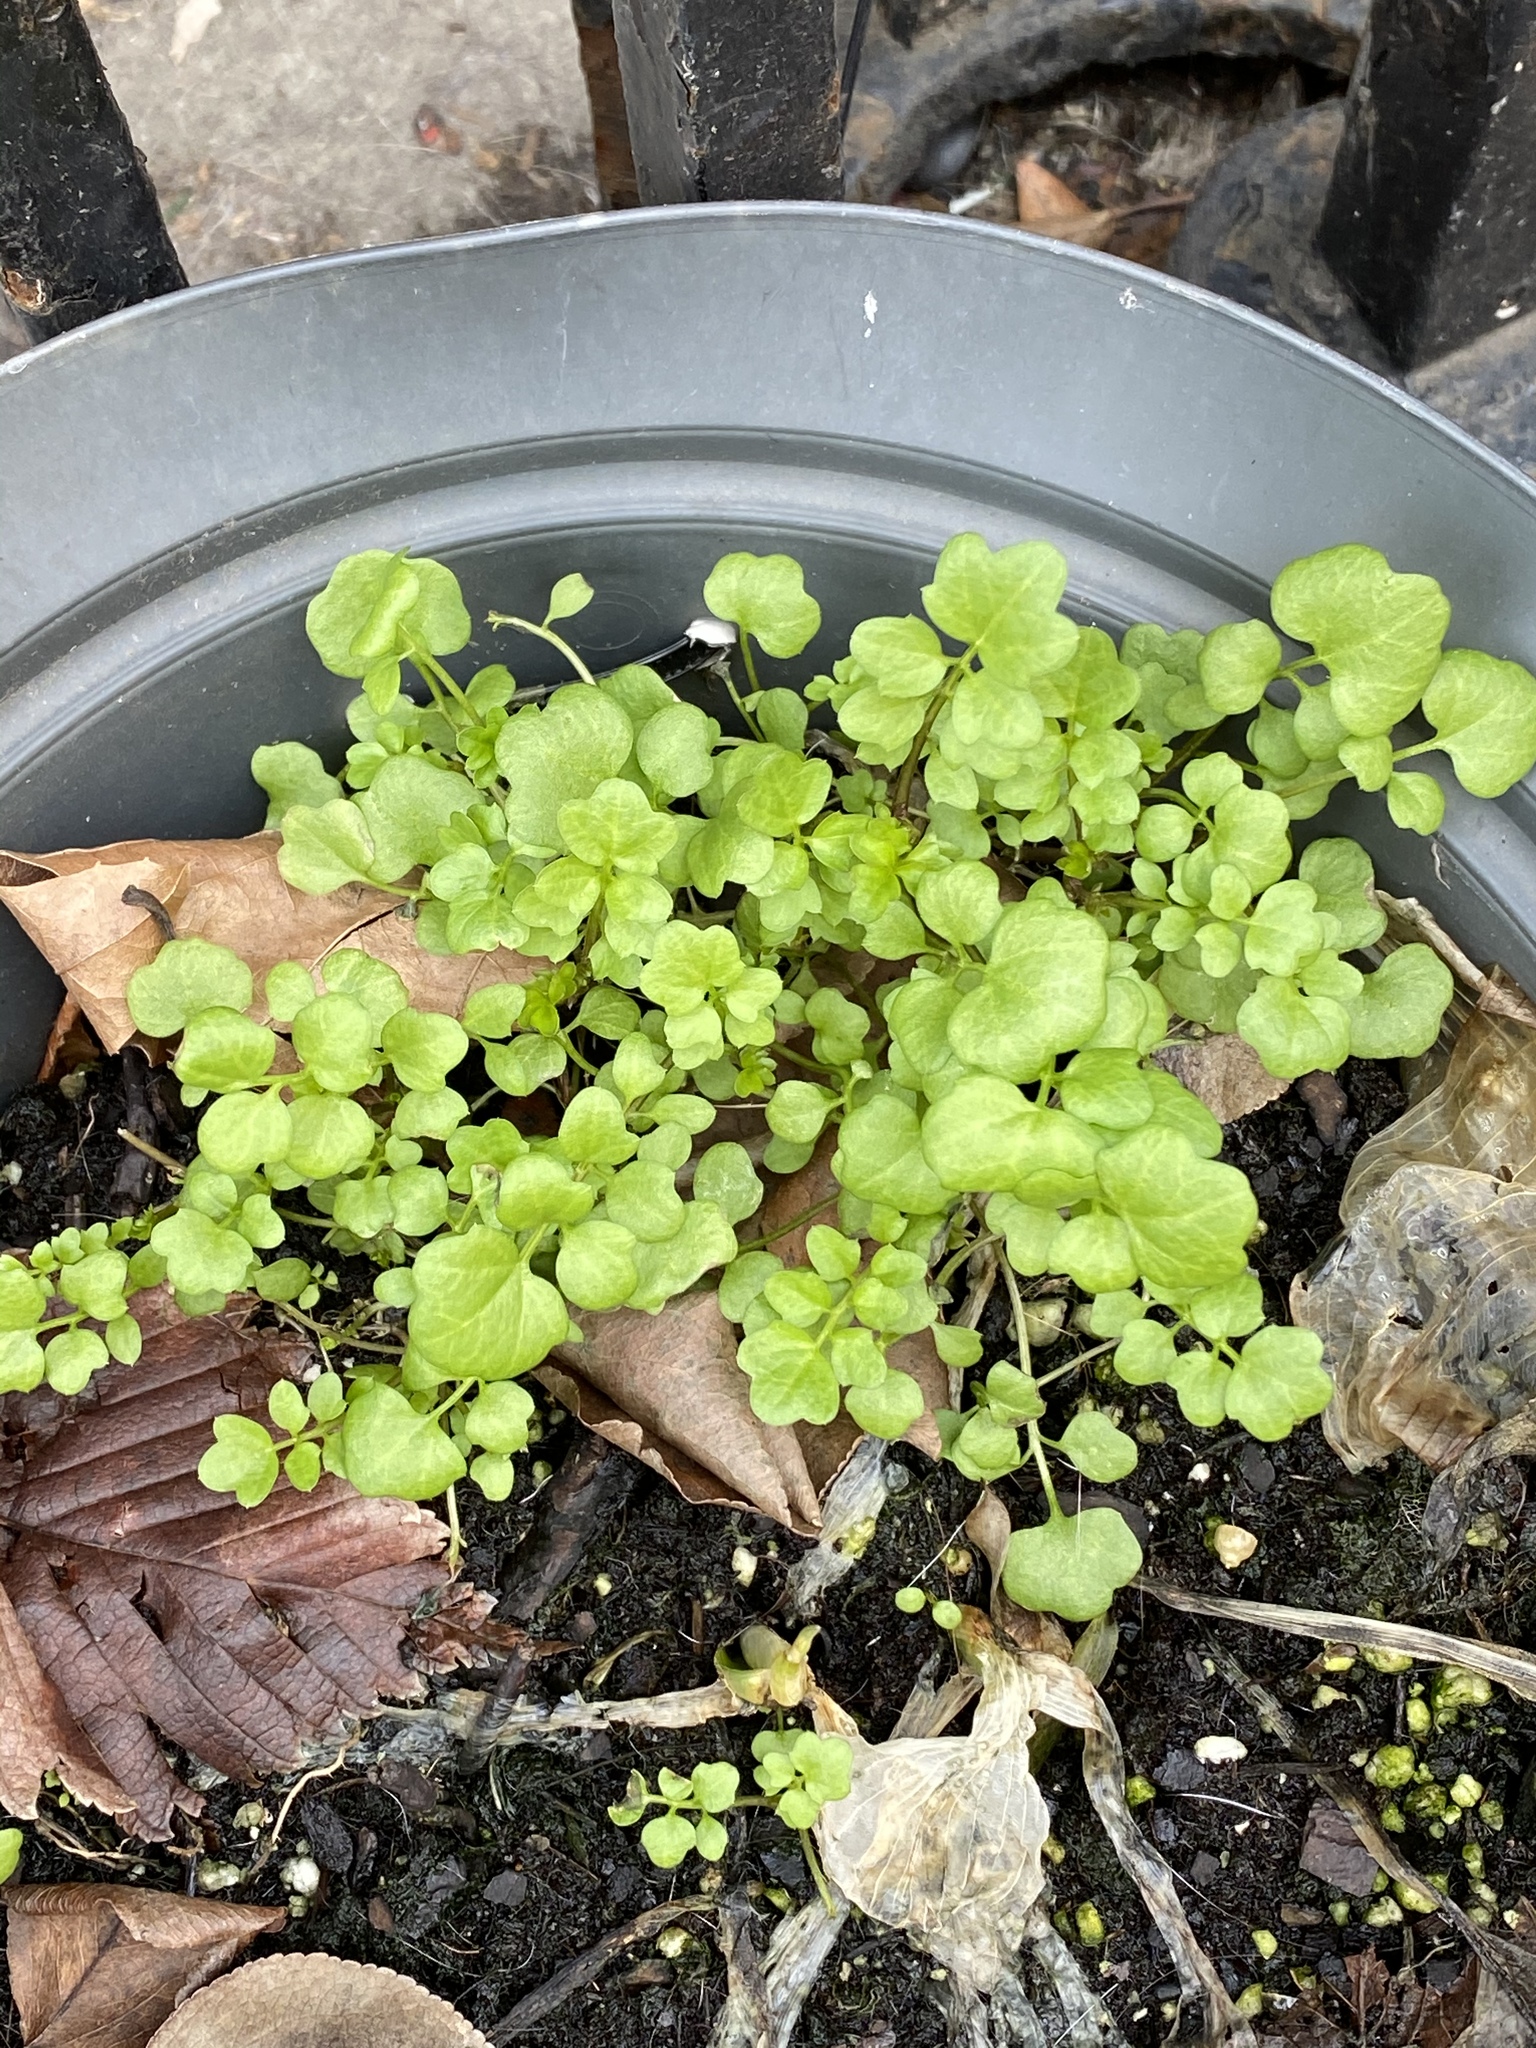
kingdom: Plantae
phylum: Tracheophyta
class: Magnoliopsida
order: Brassicales
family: Brassicaceae
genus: Cardamine
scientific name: Cardamine hirsuta
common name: Hairy bittercress
